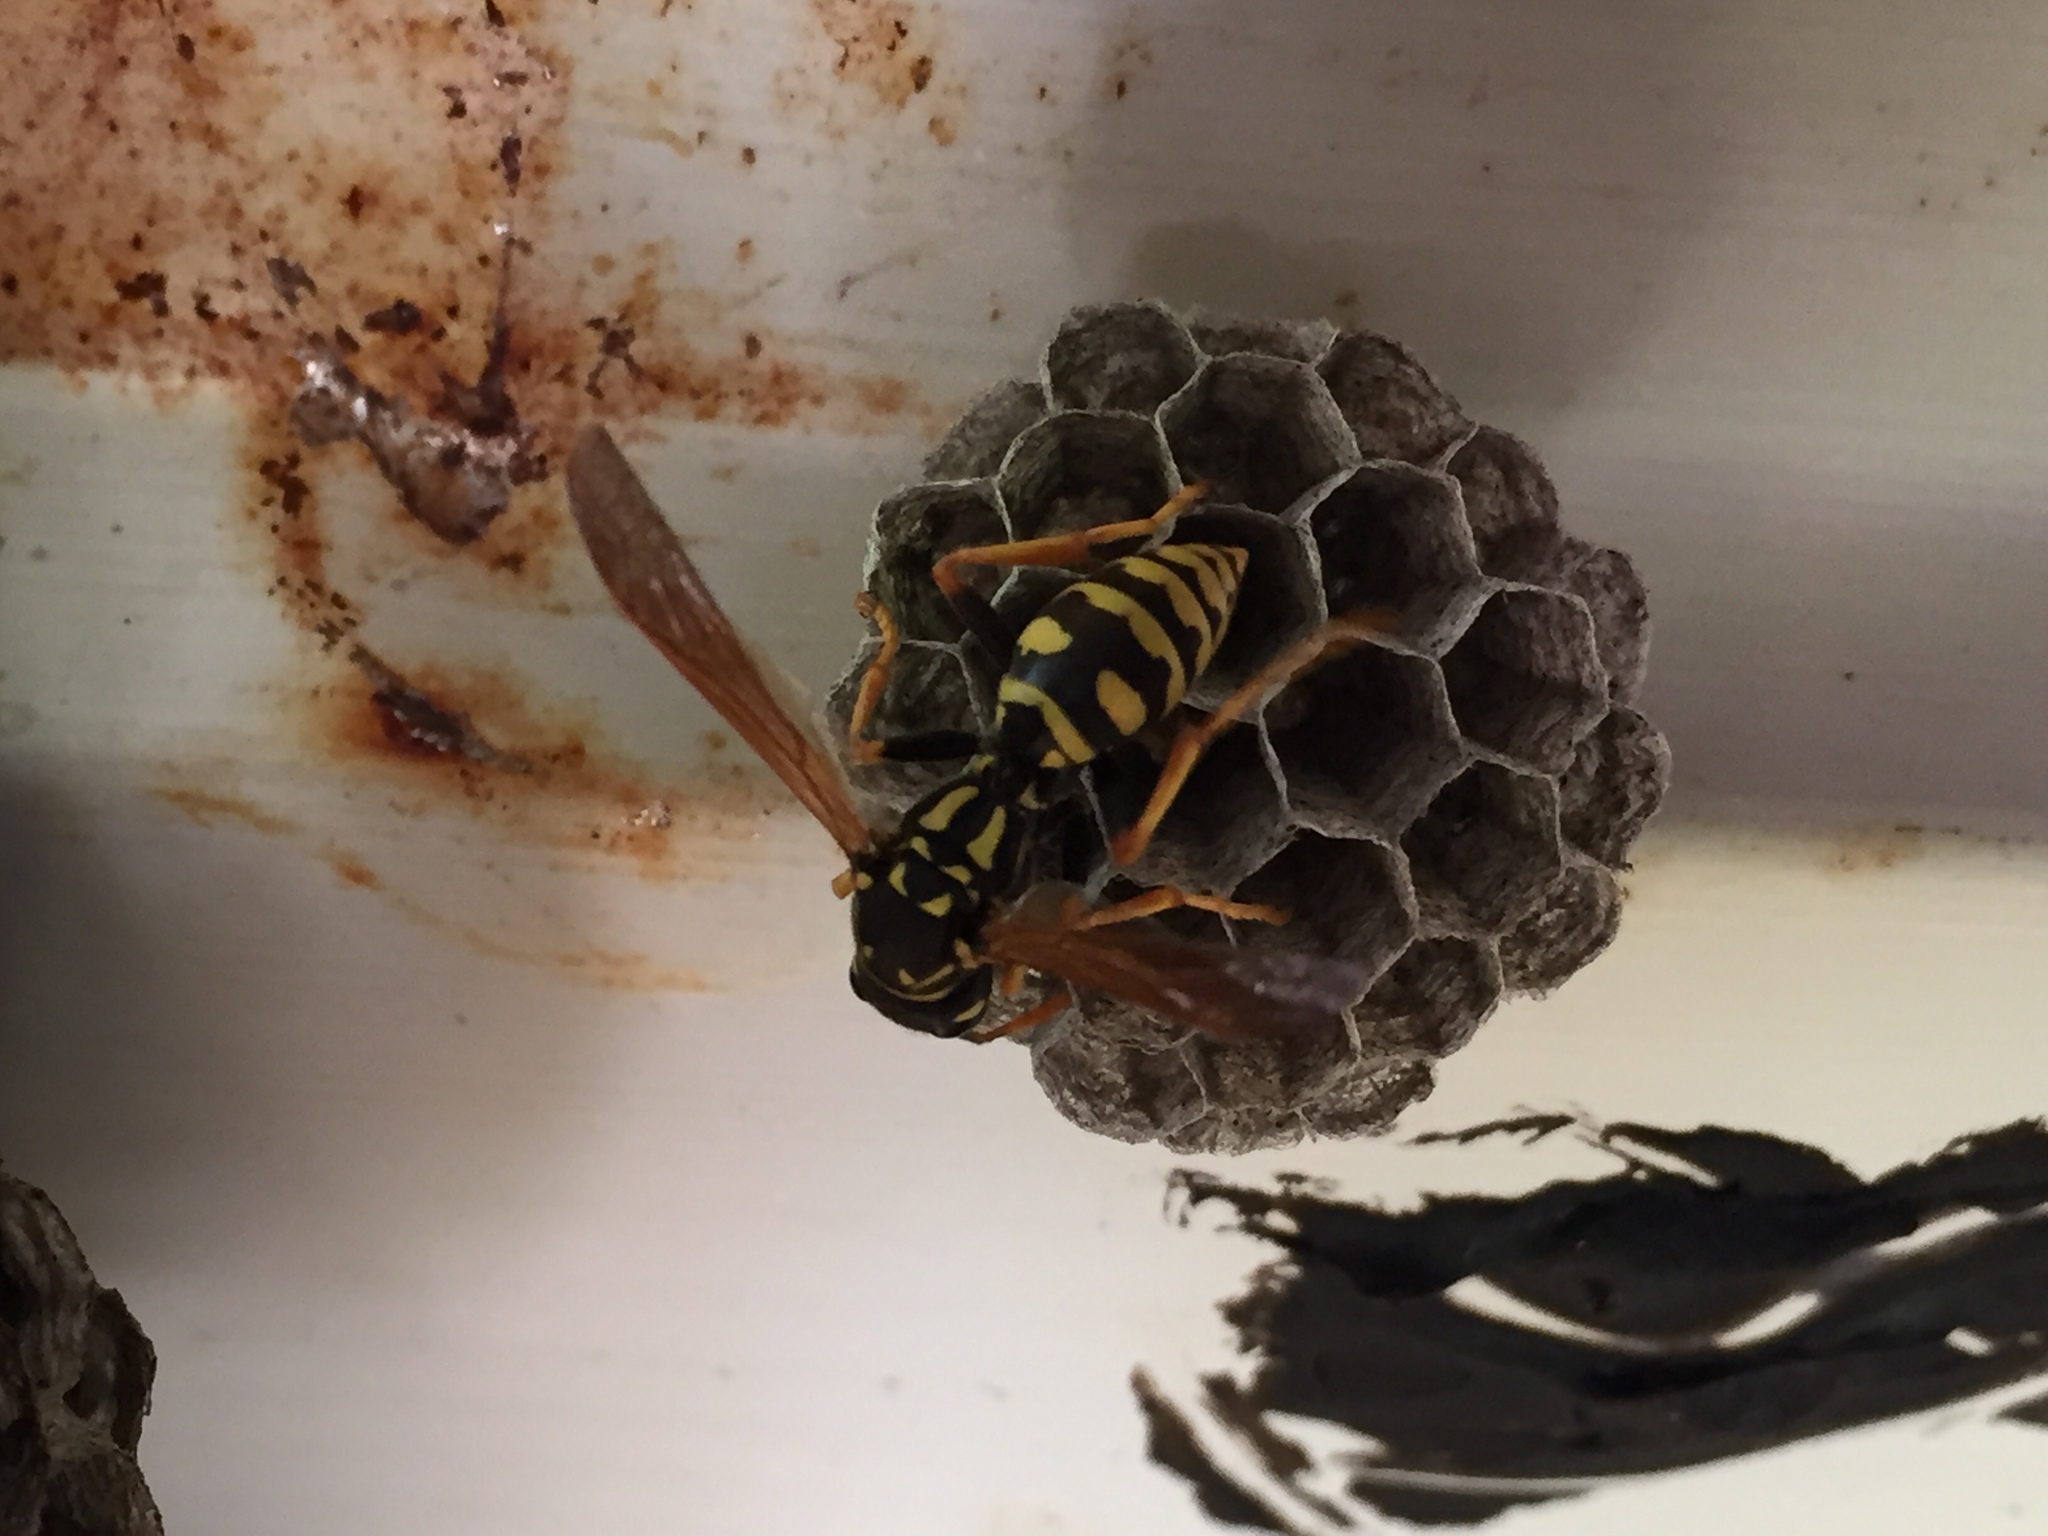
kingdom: Animalia
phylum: Arthropoda
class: Insecta
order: Hymenoptera
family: Eumenidae
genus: Polistes
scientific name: Polistes dominula
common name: Paper wasp
